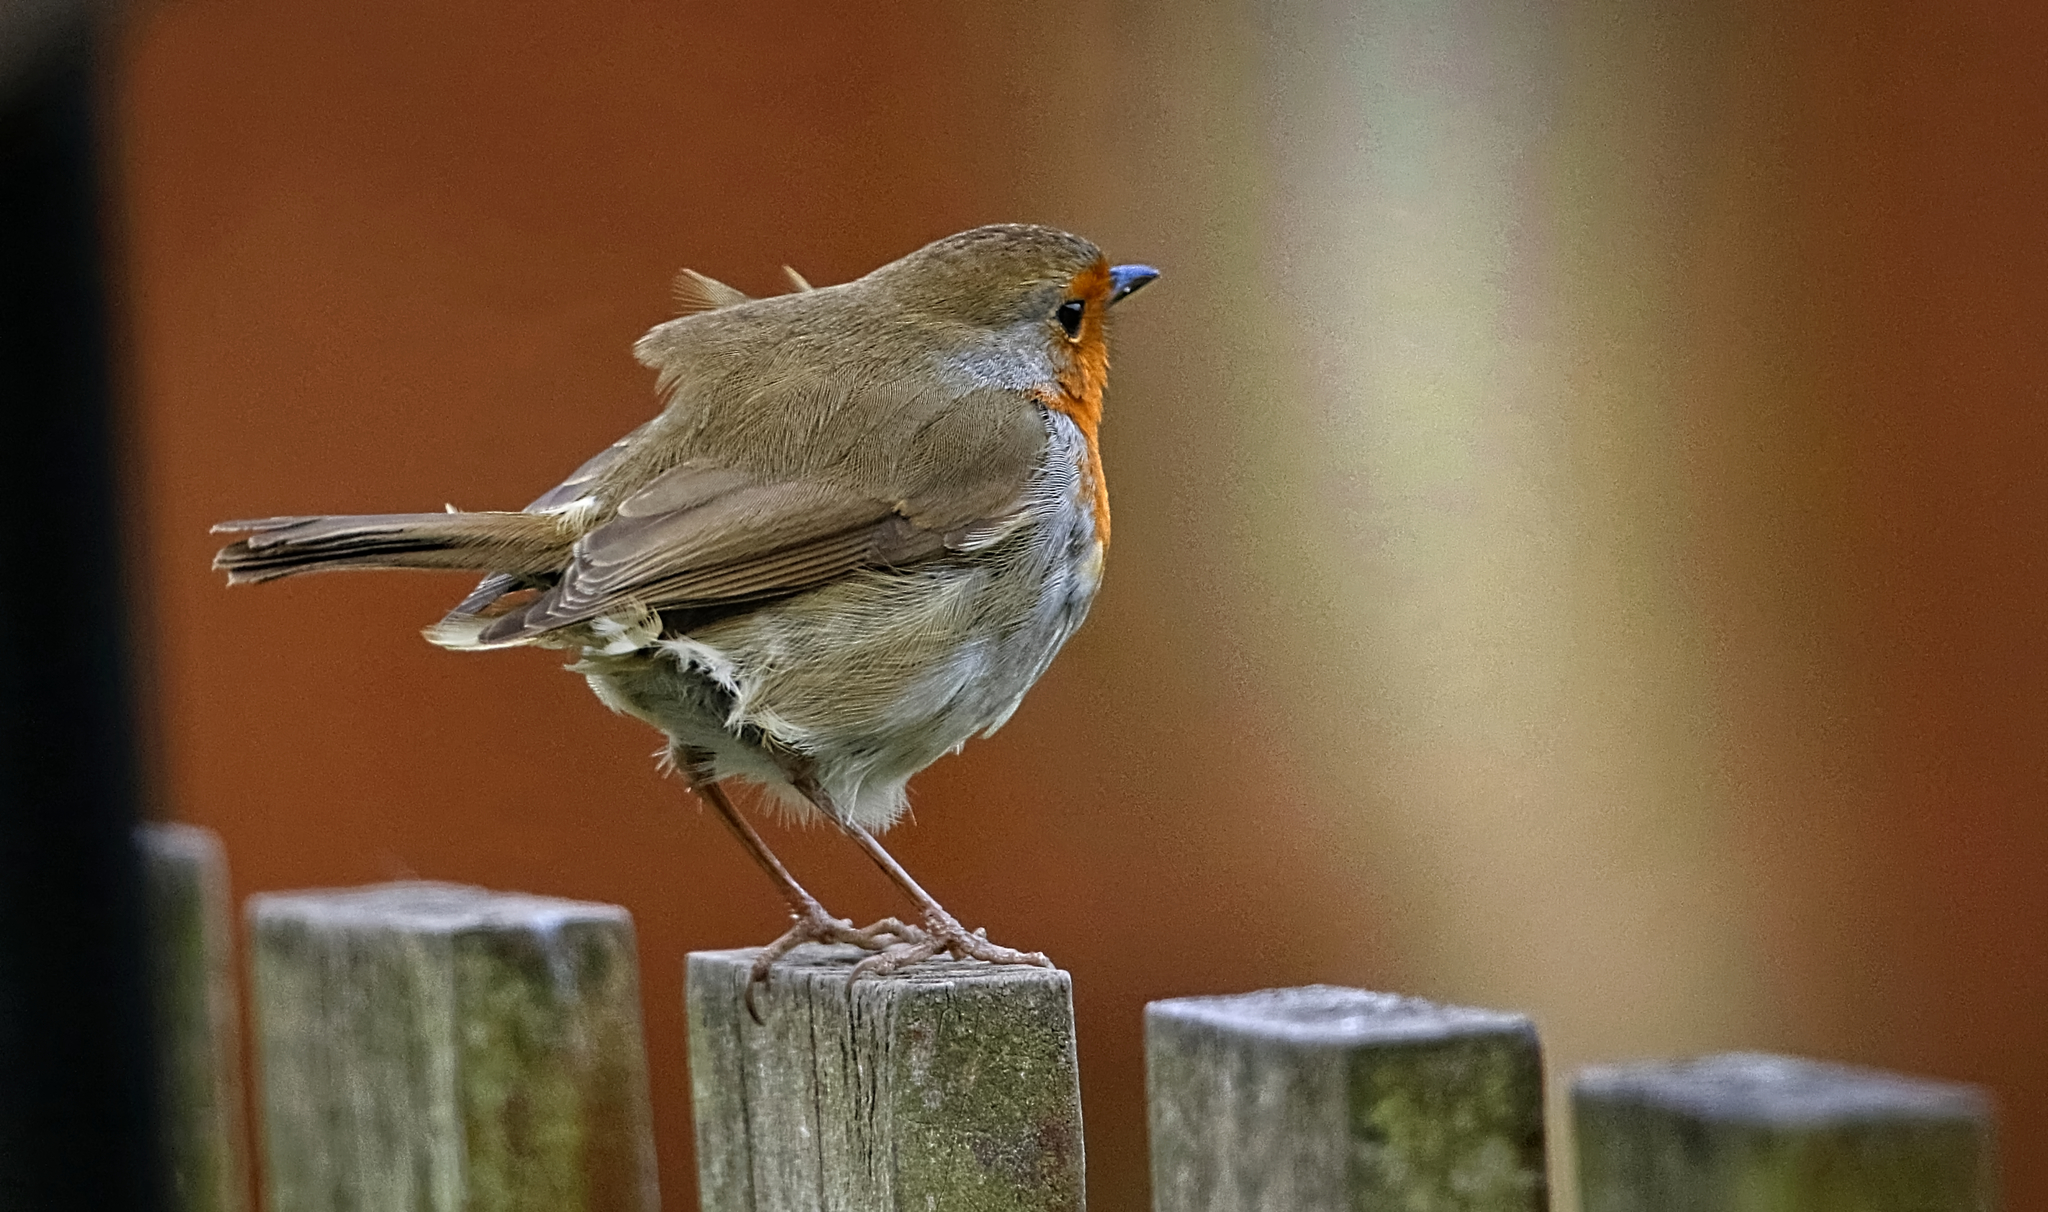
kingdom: Animalia
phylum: Chordata
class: Aves
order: Passeriformes
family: Muscicapidae
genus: Erithacus
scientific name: Erithacus rubecula
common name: European robin
